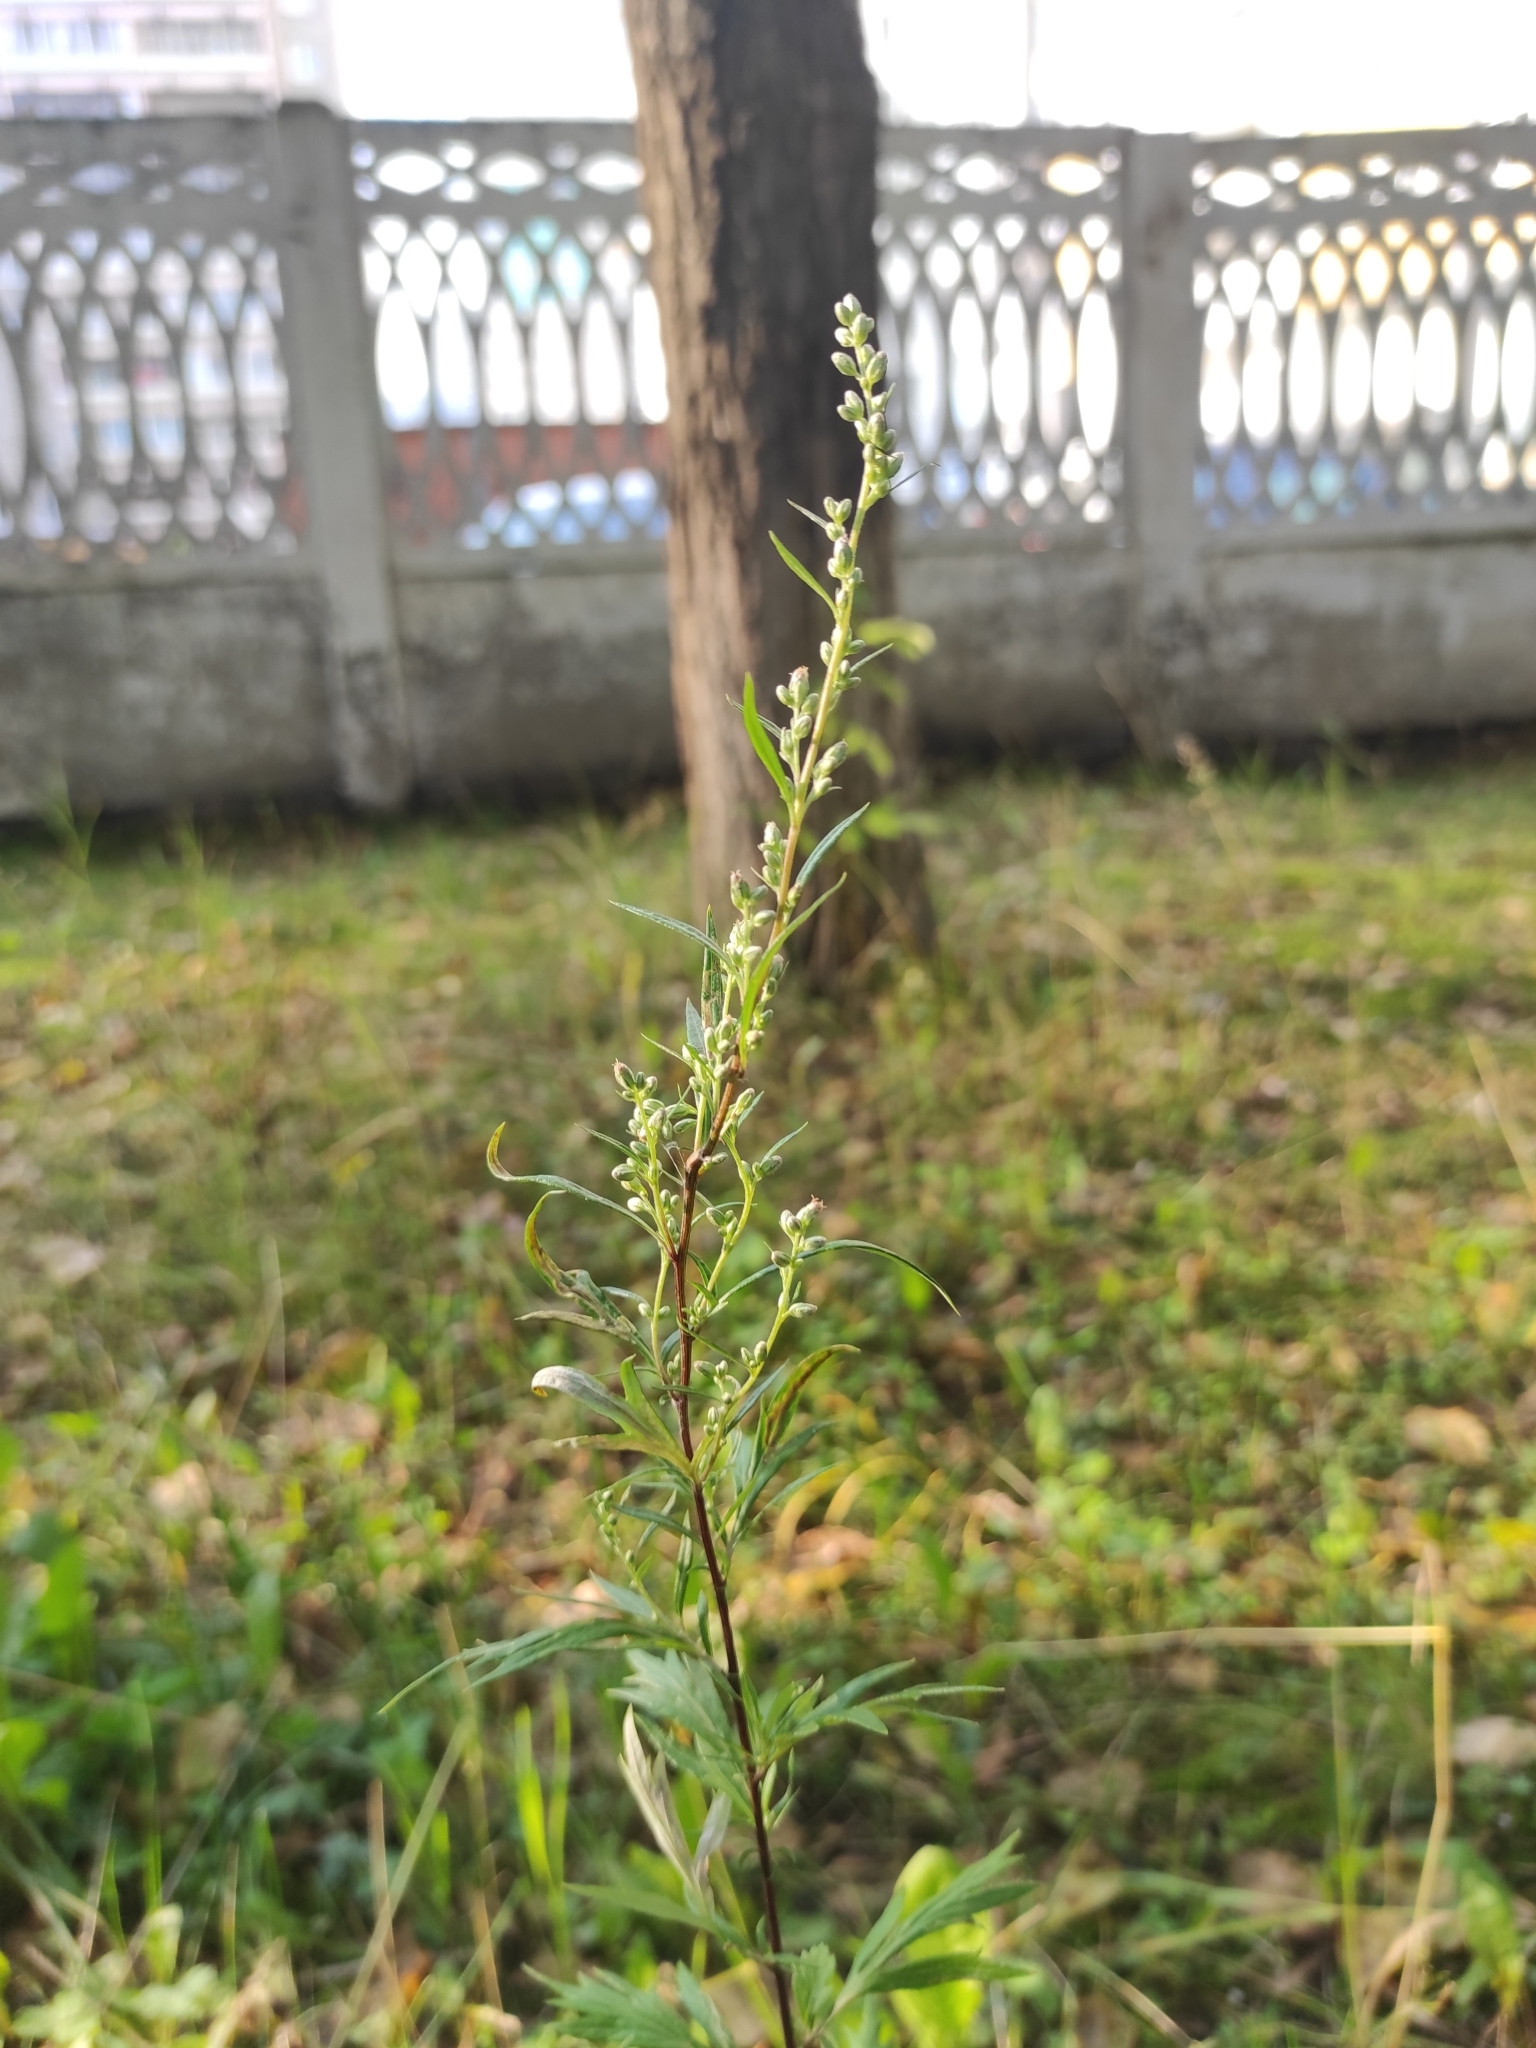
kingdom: Plantae
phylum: Tracheophyta
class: Magnoliopsida
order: Asterales
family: Asteraceae
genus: Artemisia
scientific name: Artemisia vulgaris
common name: Mugwort
